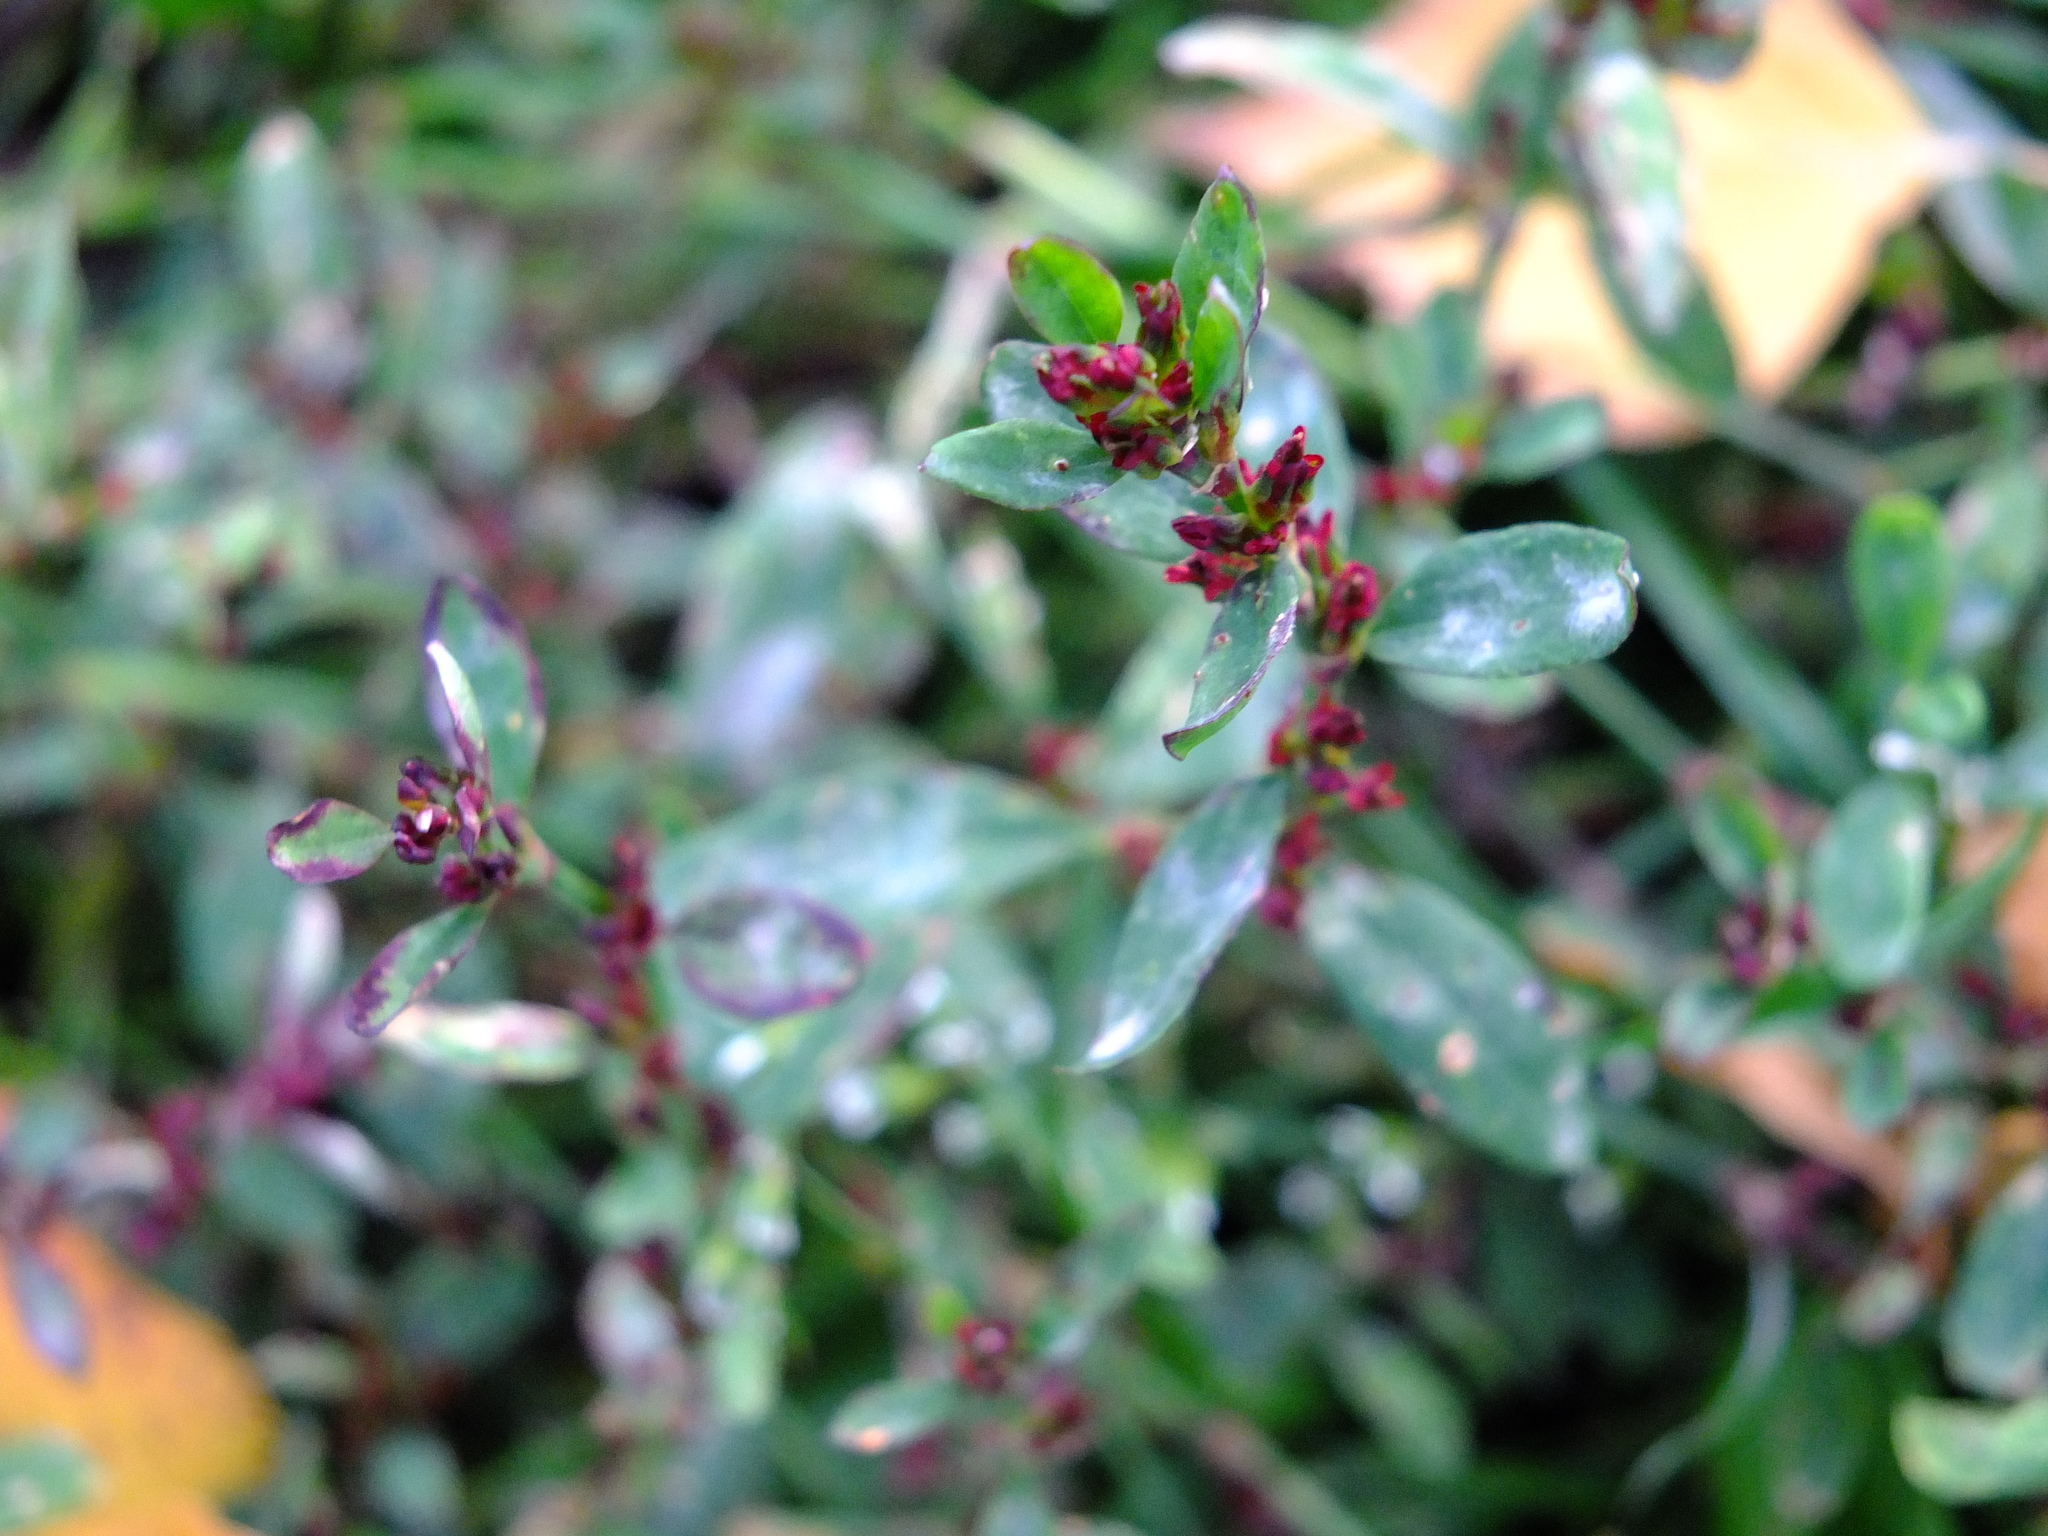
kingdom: Plantae
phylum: Tracheophyta
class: Magnoliopsida
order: Caryophyllales
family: Polygonaceae
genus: Polygonum
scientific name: Polygonum
